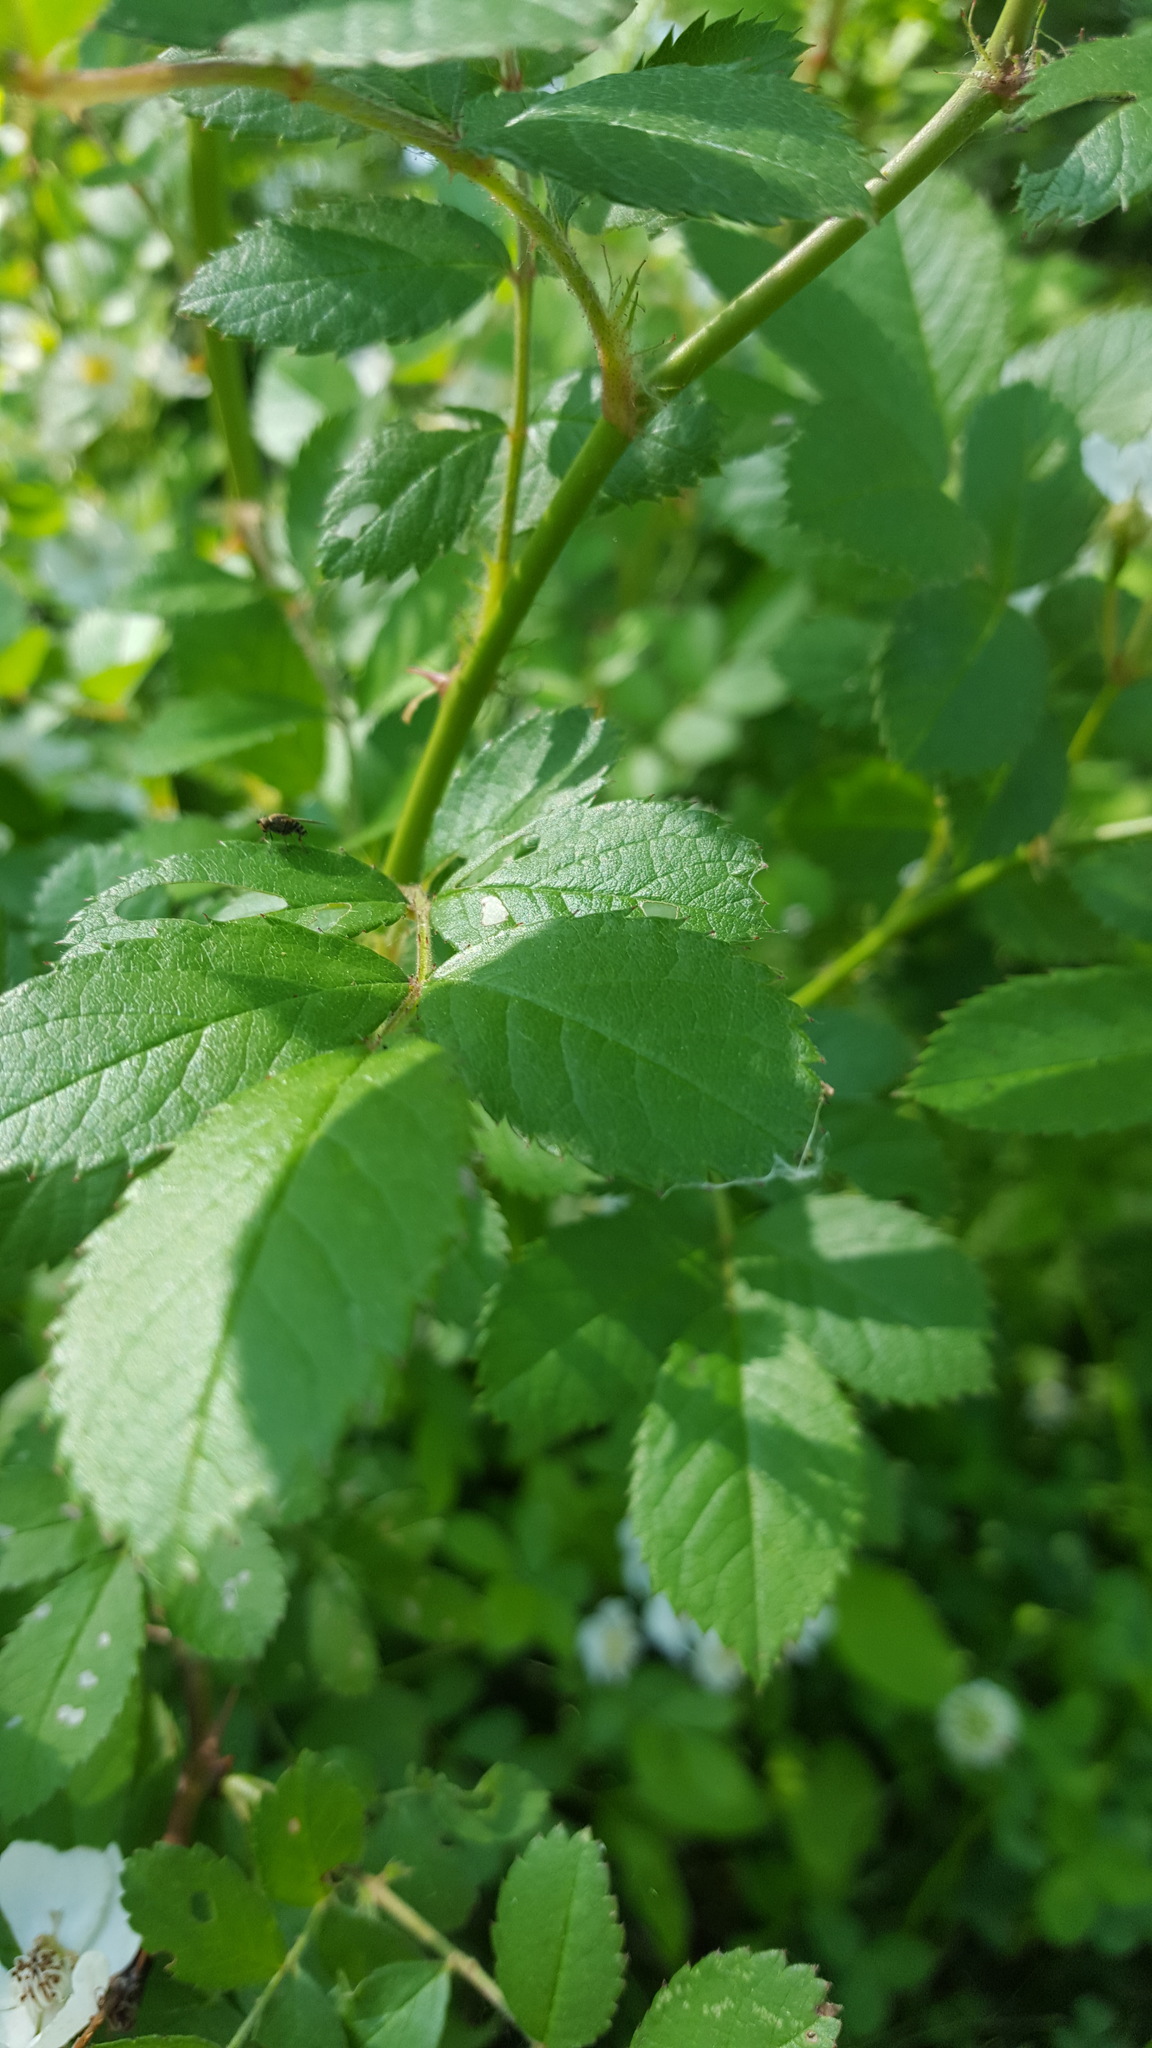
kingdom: Plantae
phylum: Tracheophyta
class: Magnoliopsida
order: Rosales
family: Rosaceae
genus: Rosa
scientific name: Rosa multiflora
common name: Multiflora rose
